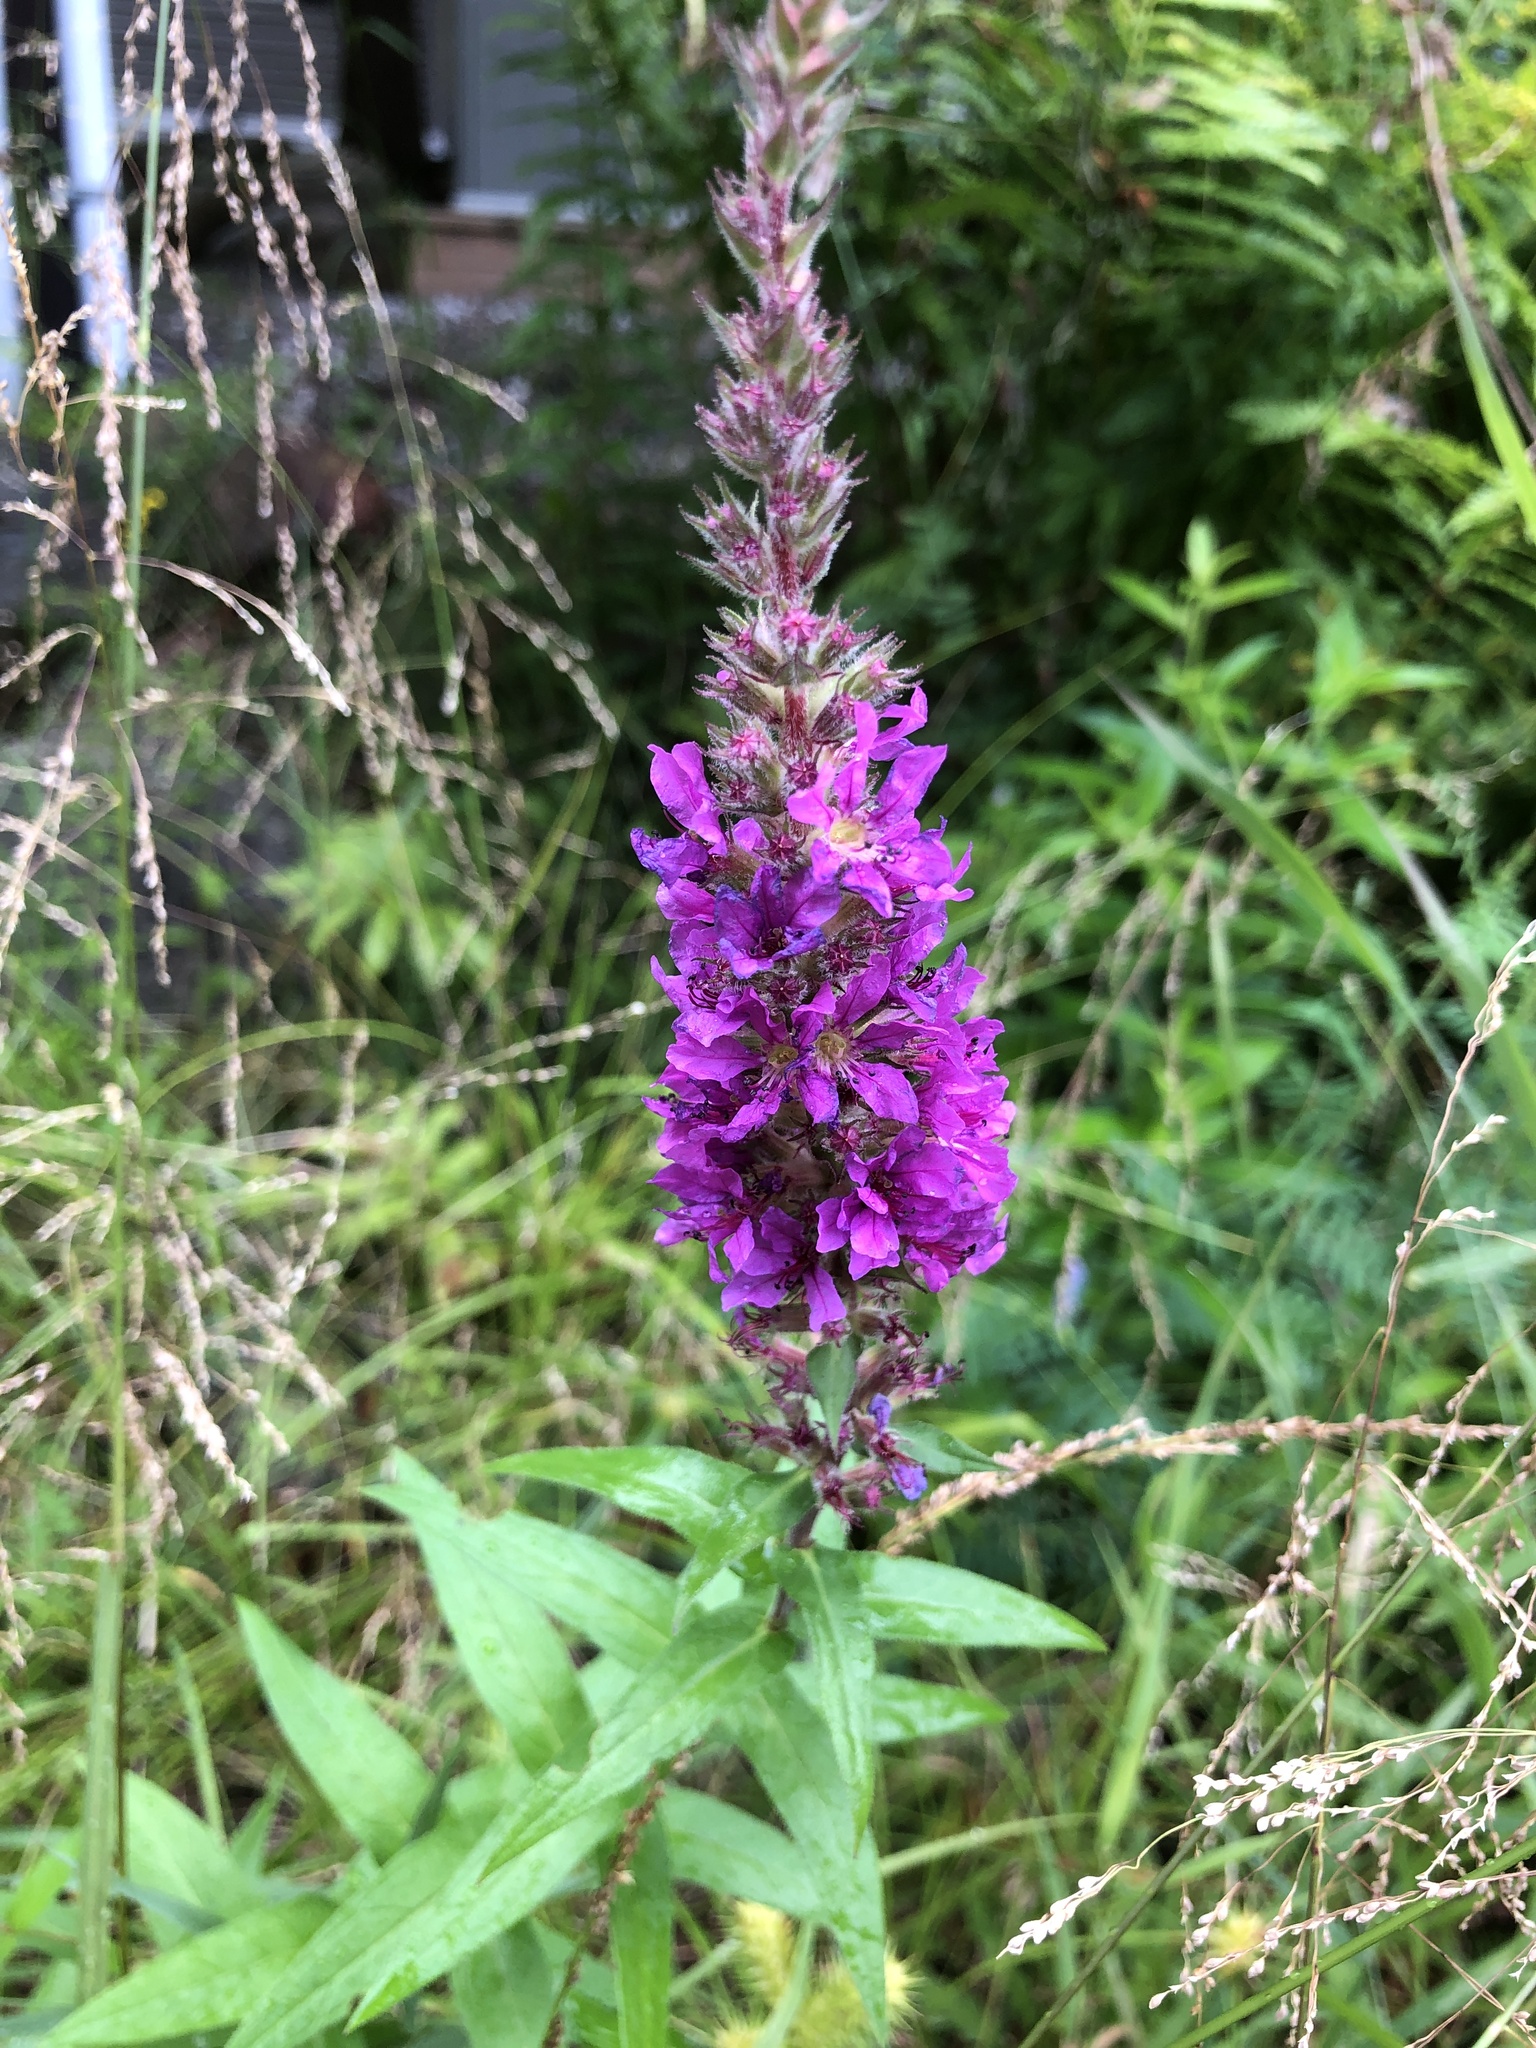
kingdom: Plantae
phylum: Tracheophyta
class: Magnoliopsida
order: Myrtales
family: Lythraceae
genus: Lythrum
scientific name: Lythrum salicaria
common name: Purple loosestrife
